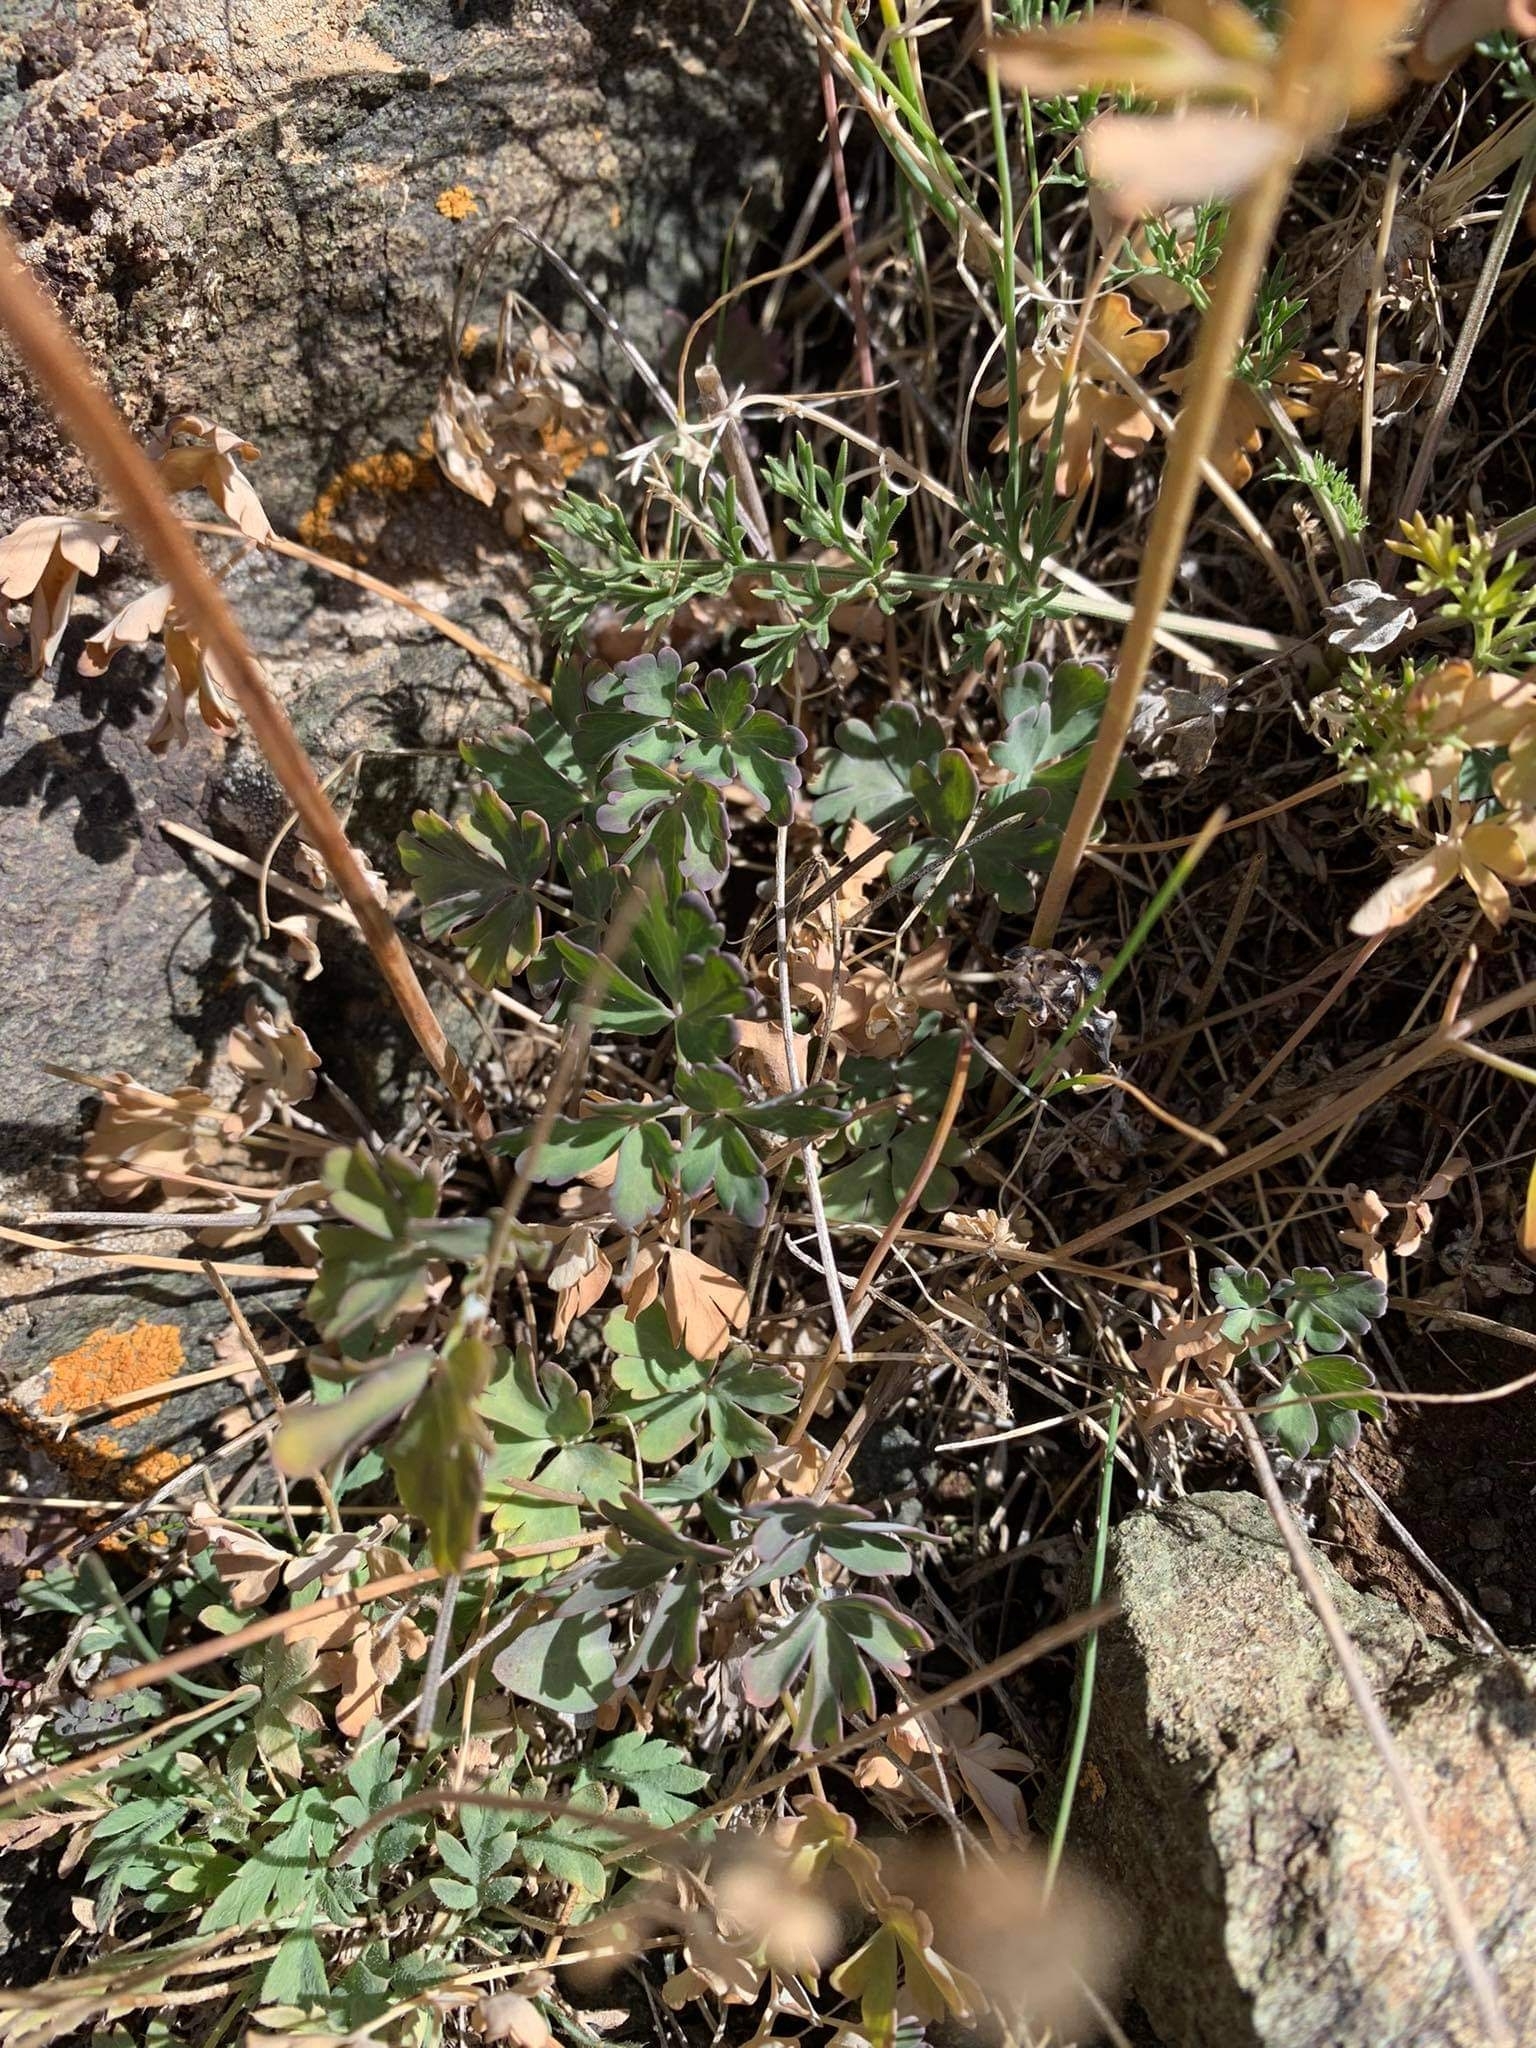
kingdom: Plantae
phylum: Tracheophyta
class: Magnoliopsida
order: Ranunculales
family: Ranunculaceae
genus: Aquilegia
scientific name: Aquilegia viridiflora
